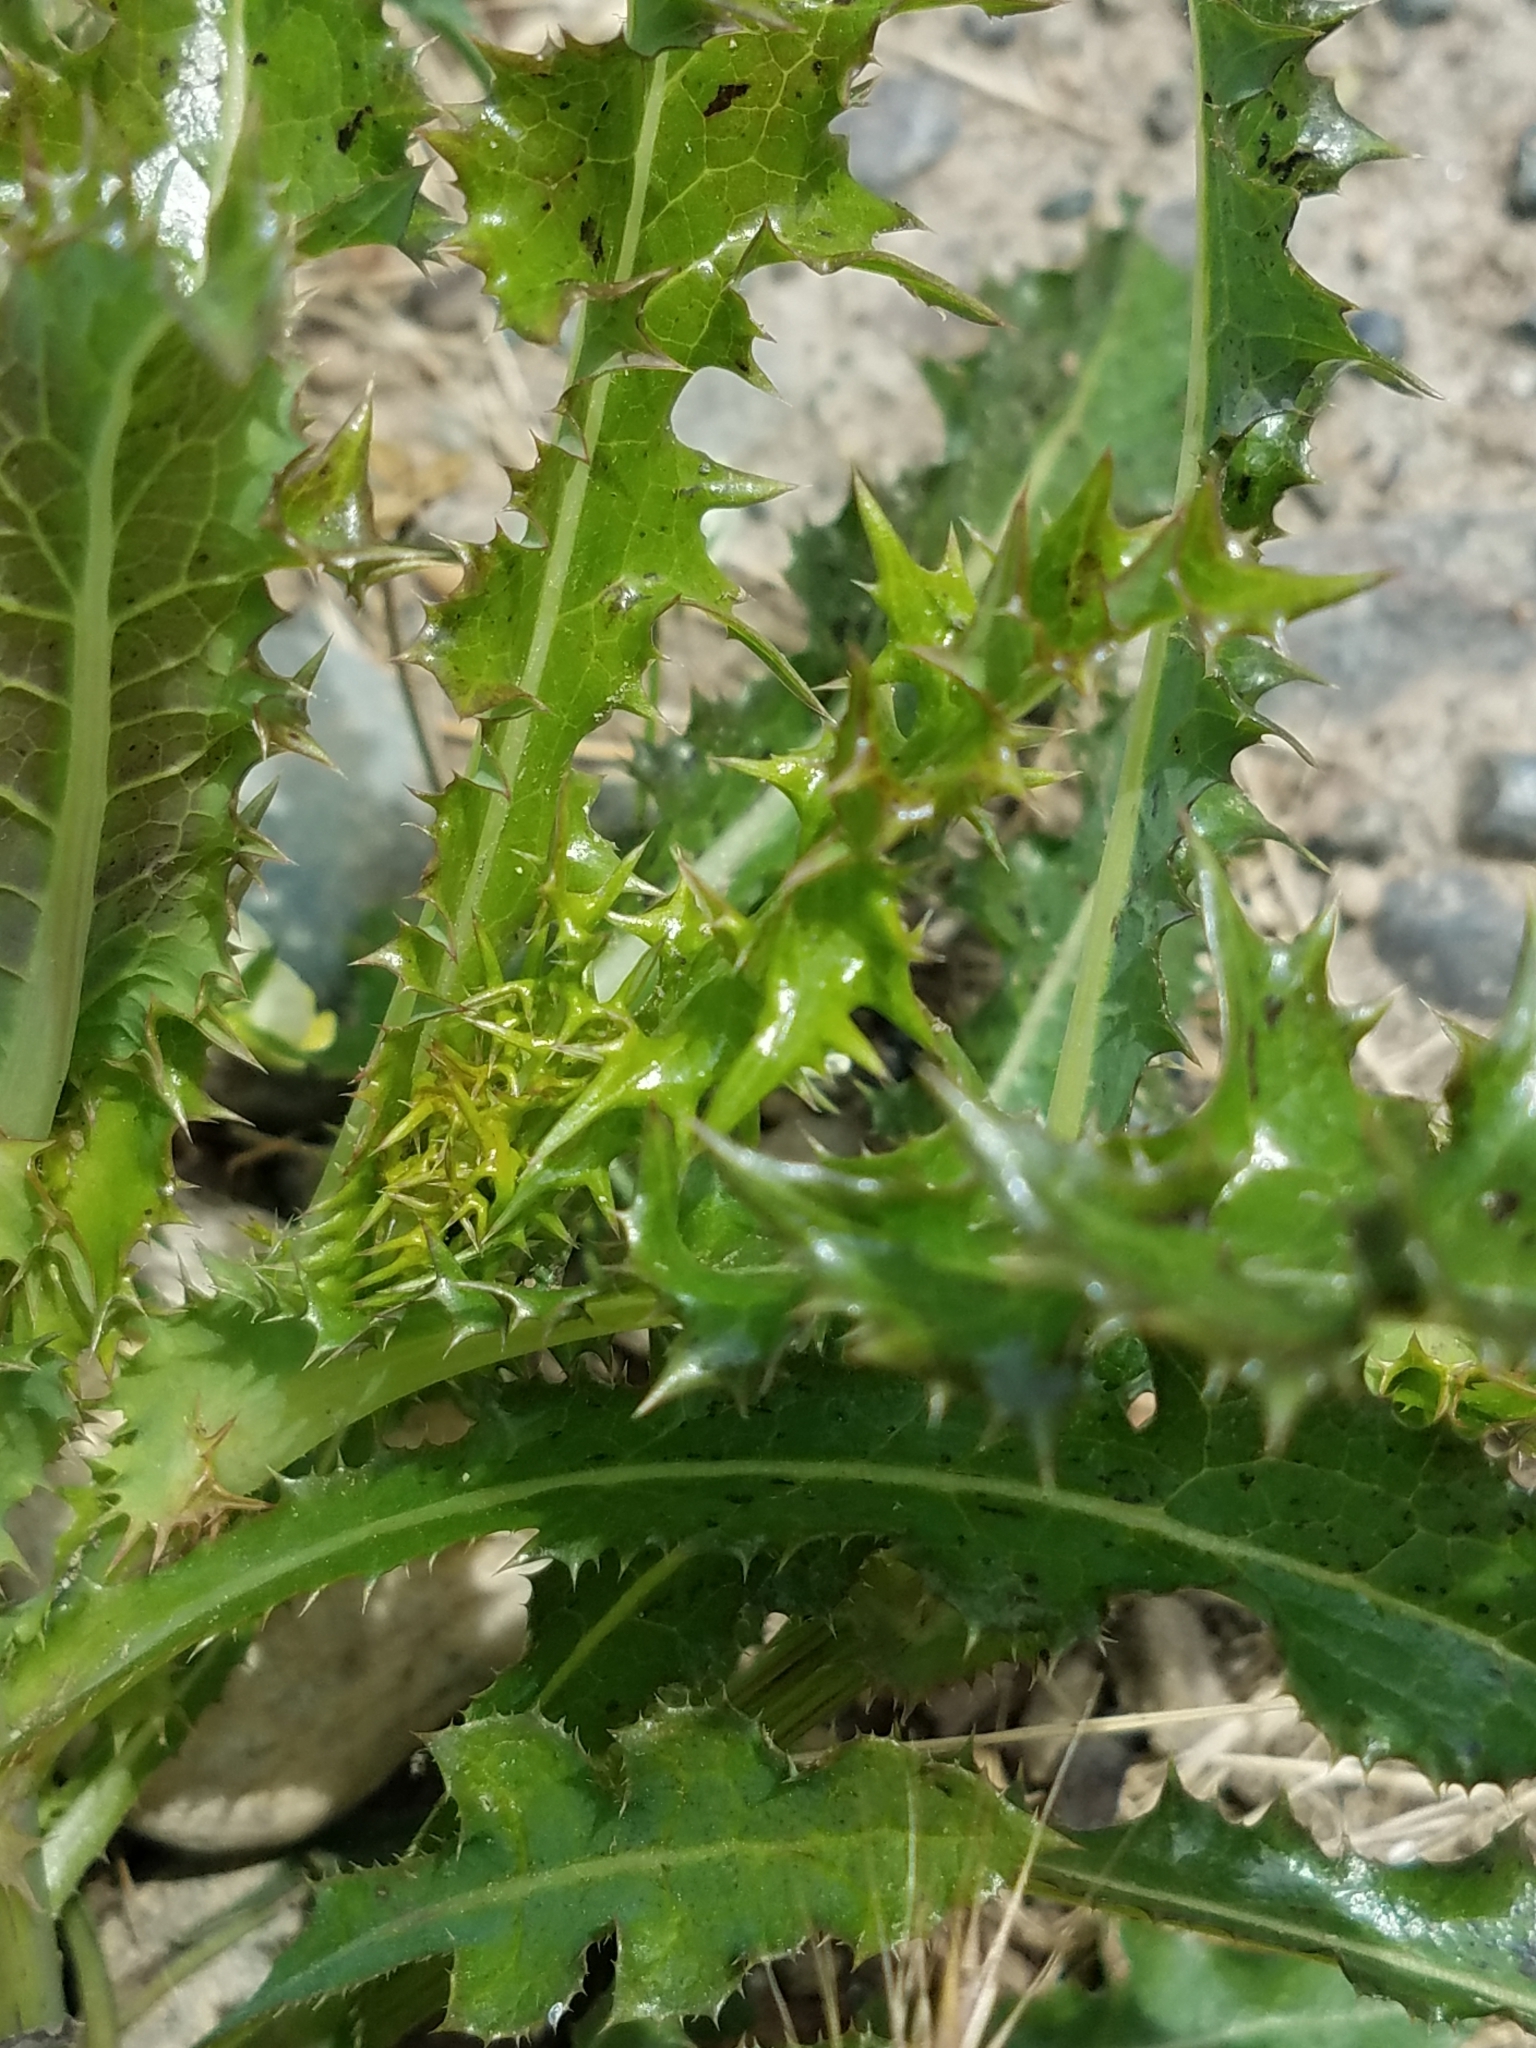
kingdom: Plantae
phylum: Tracheophyta
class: Magnoliopsida
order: Asterales
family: Asteraceae
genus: Sonchus
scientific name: Sonchus asper
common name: Prickly sow-thistle
